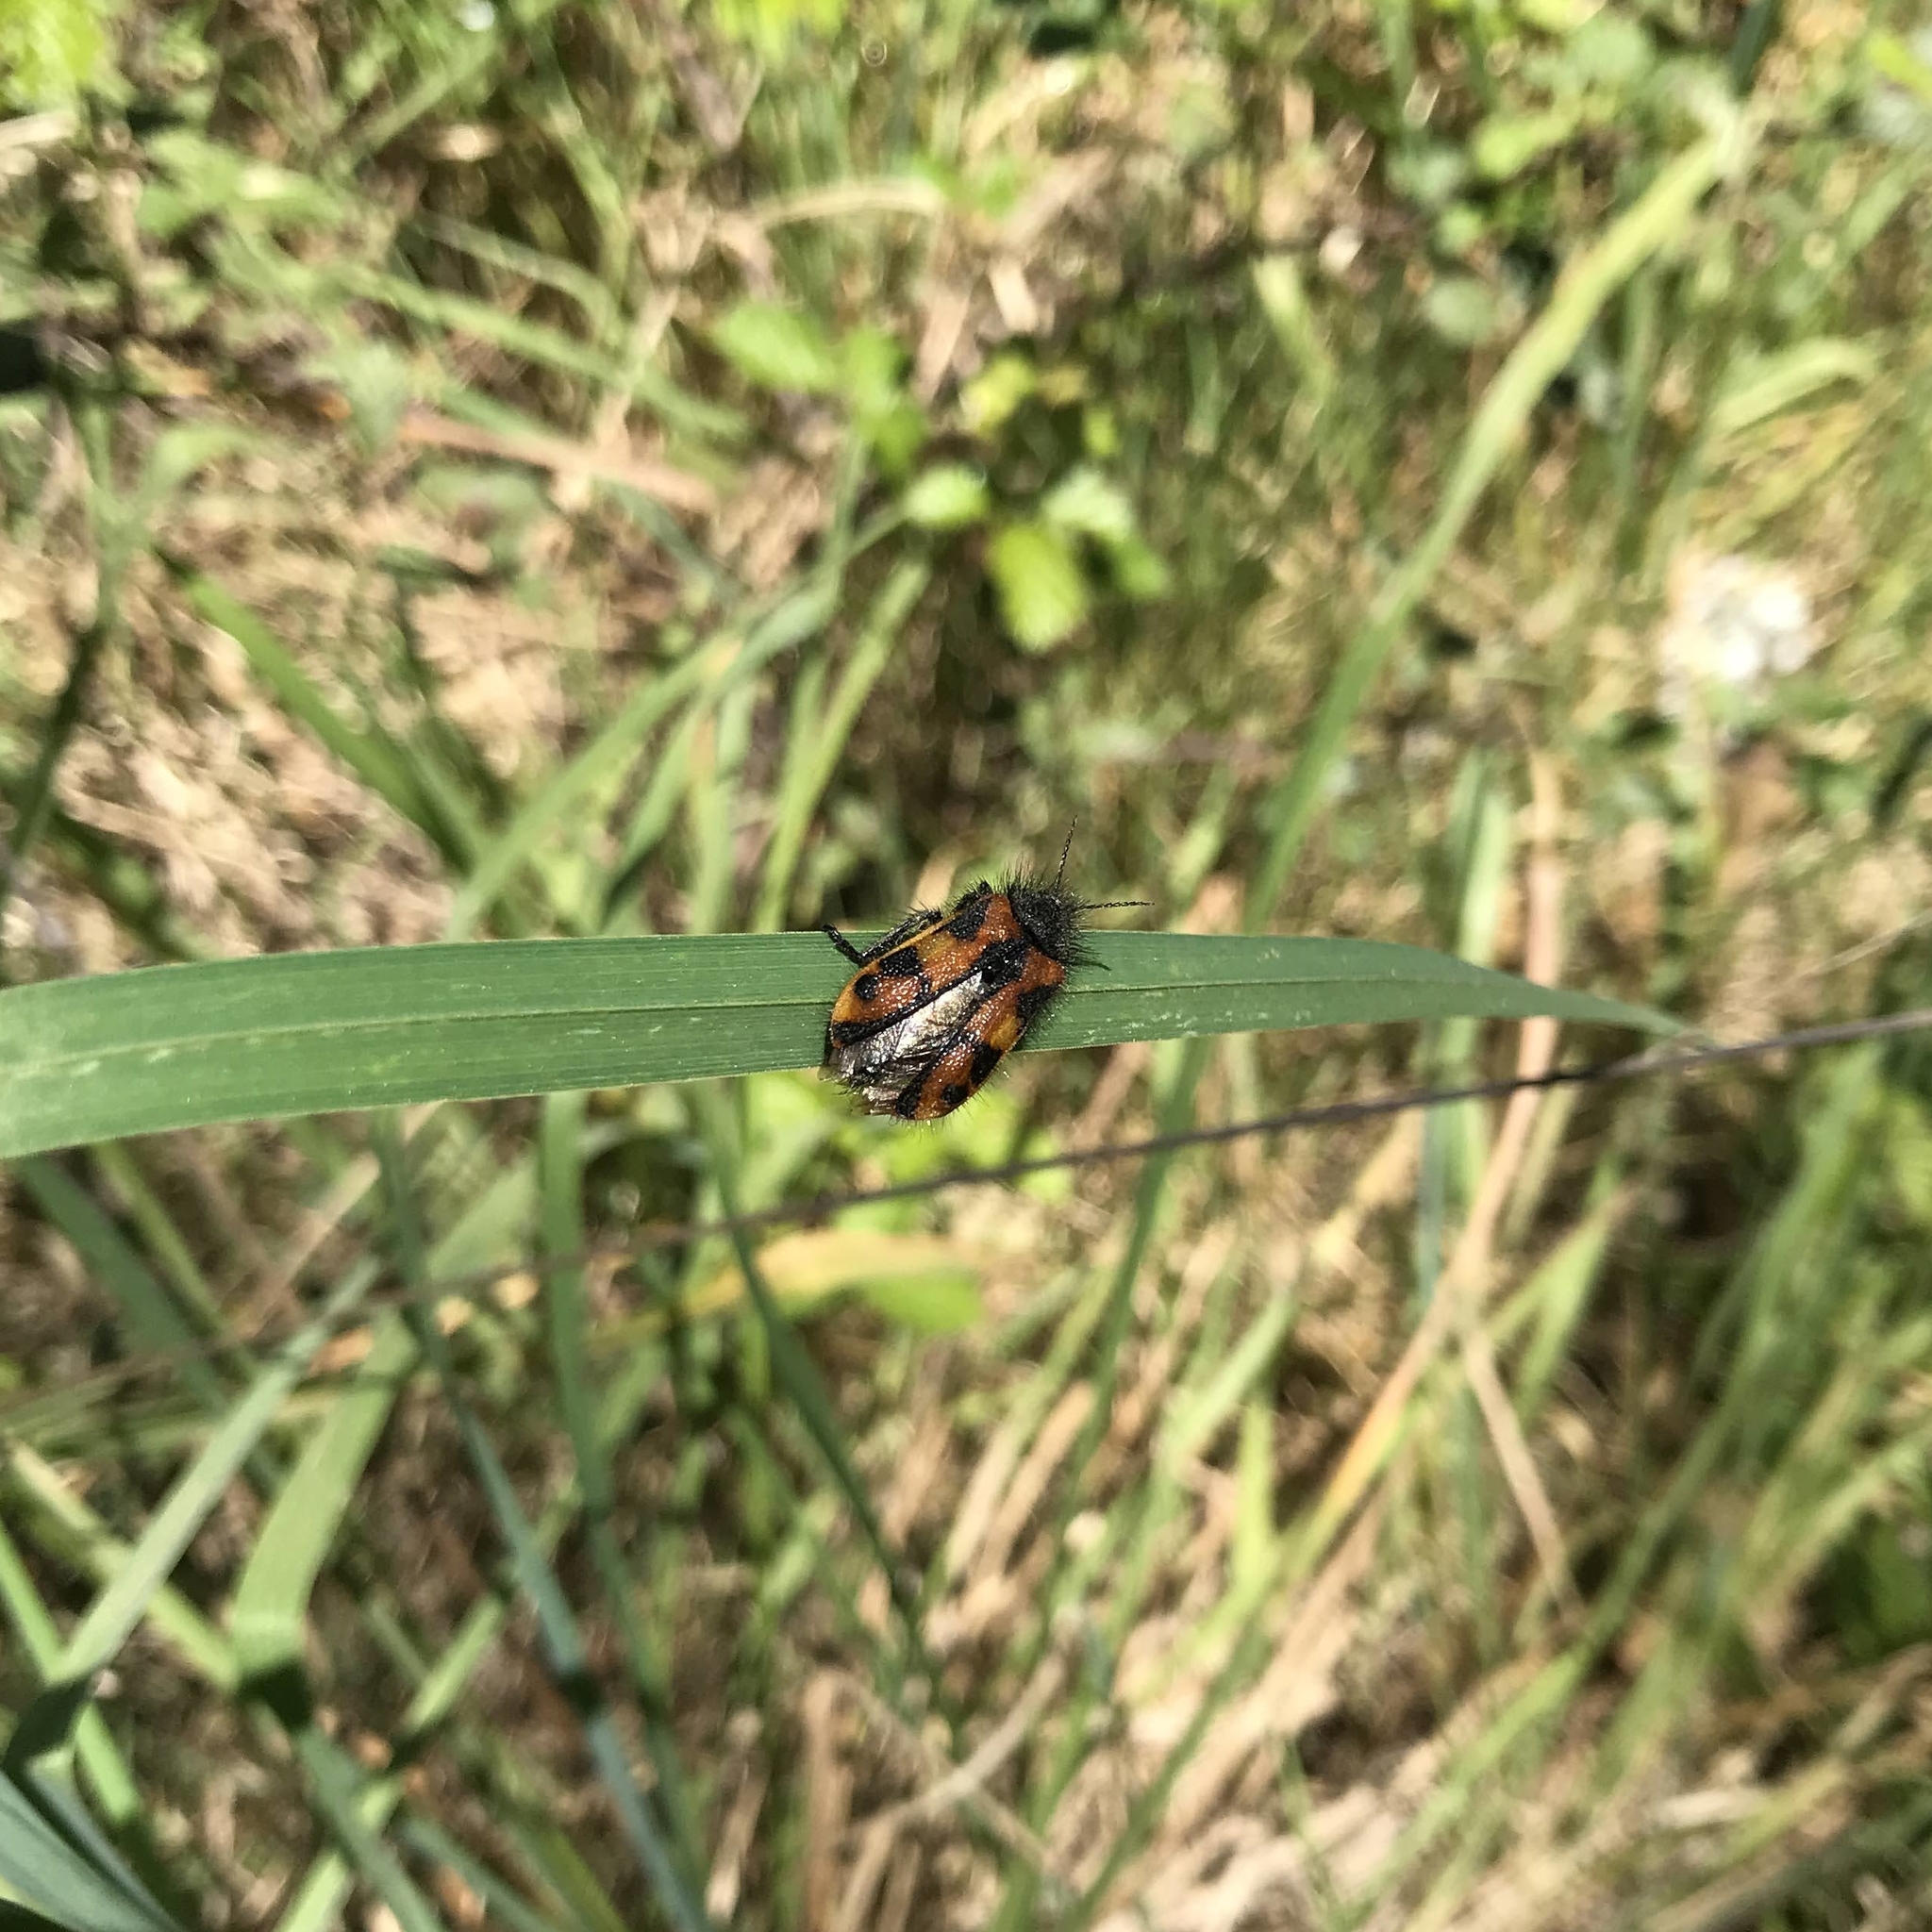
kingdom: Animalia
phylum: Arthropoda
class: Insecta
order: Coleoptera
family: Melyridae
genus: Astylus
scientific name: Astylus
